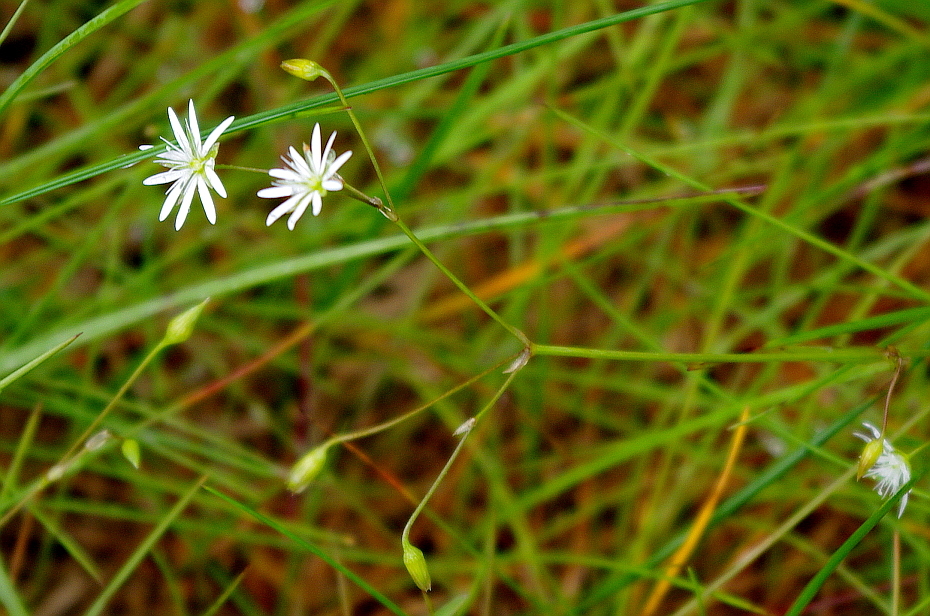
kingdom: Plantae
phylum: Tracheophyta
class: Magnoliopsida
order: Caryophyllales
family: Caryophyllaceae
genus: Stellaria
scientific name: Stellaria palustris
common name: Marsh stitchwort
